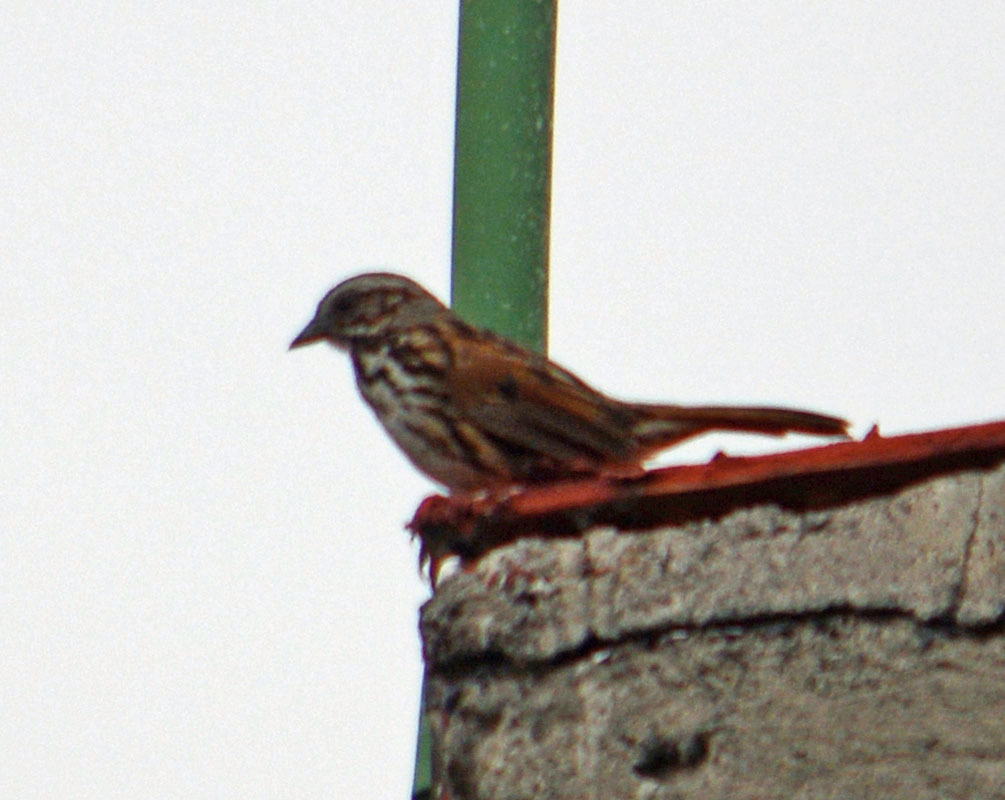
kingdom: Animalia
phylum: Chordata
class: Aves
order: Passeriformes
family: Passerellidae
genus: Melospiza
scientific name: Melospiza melodia
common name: Song sparrow
